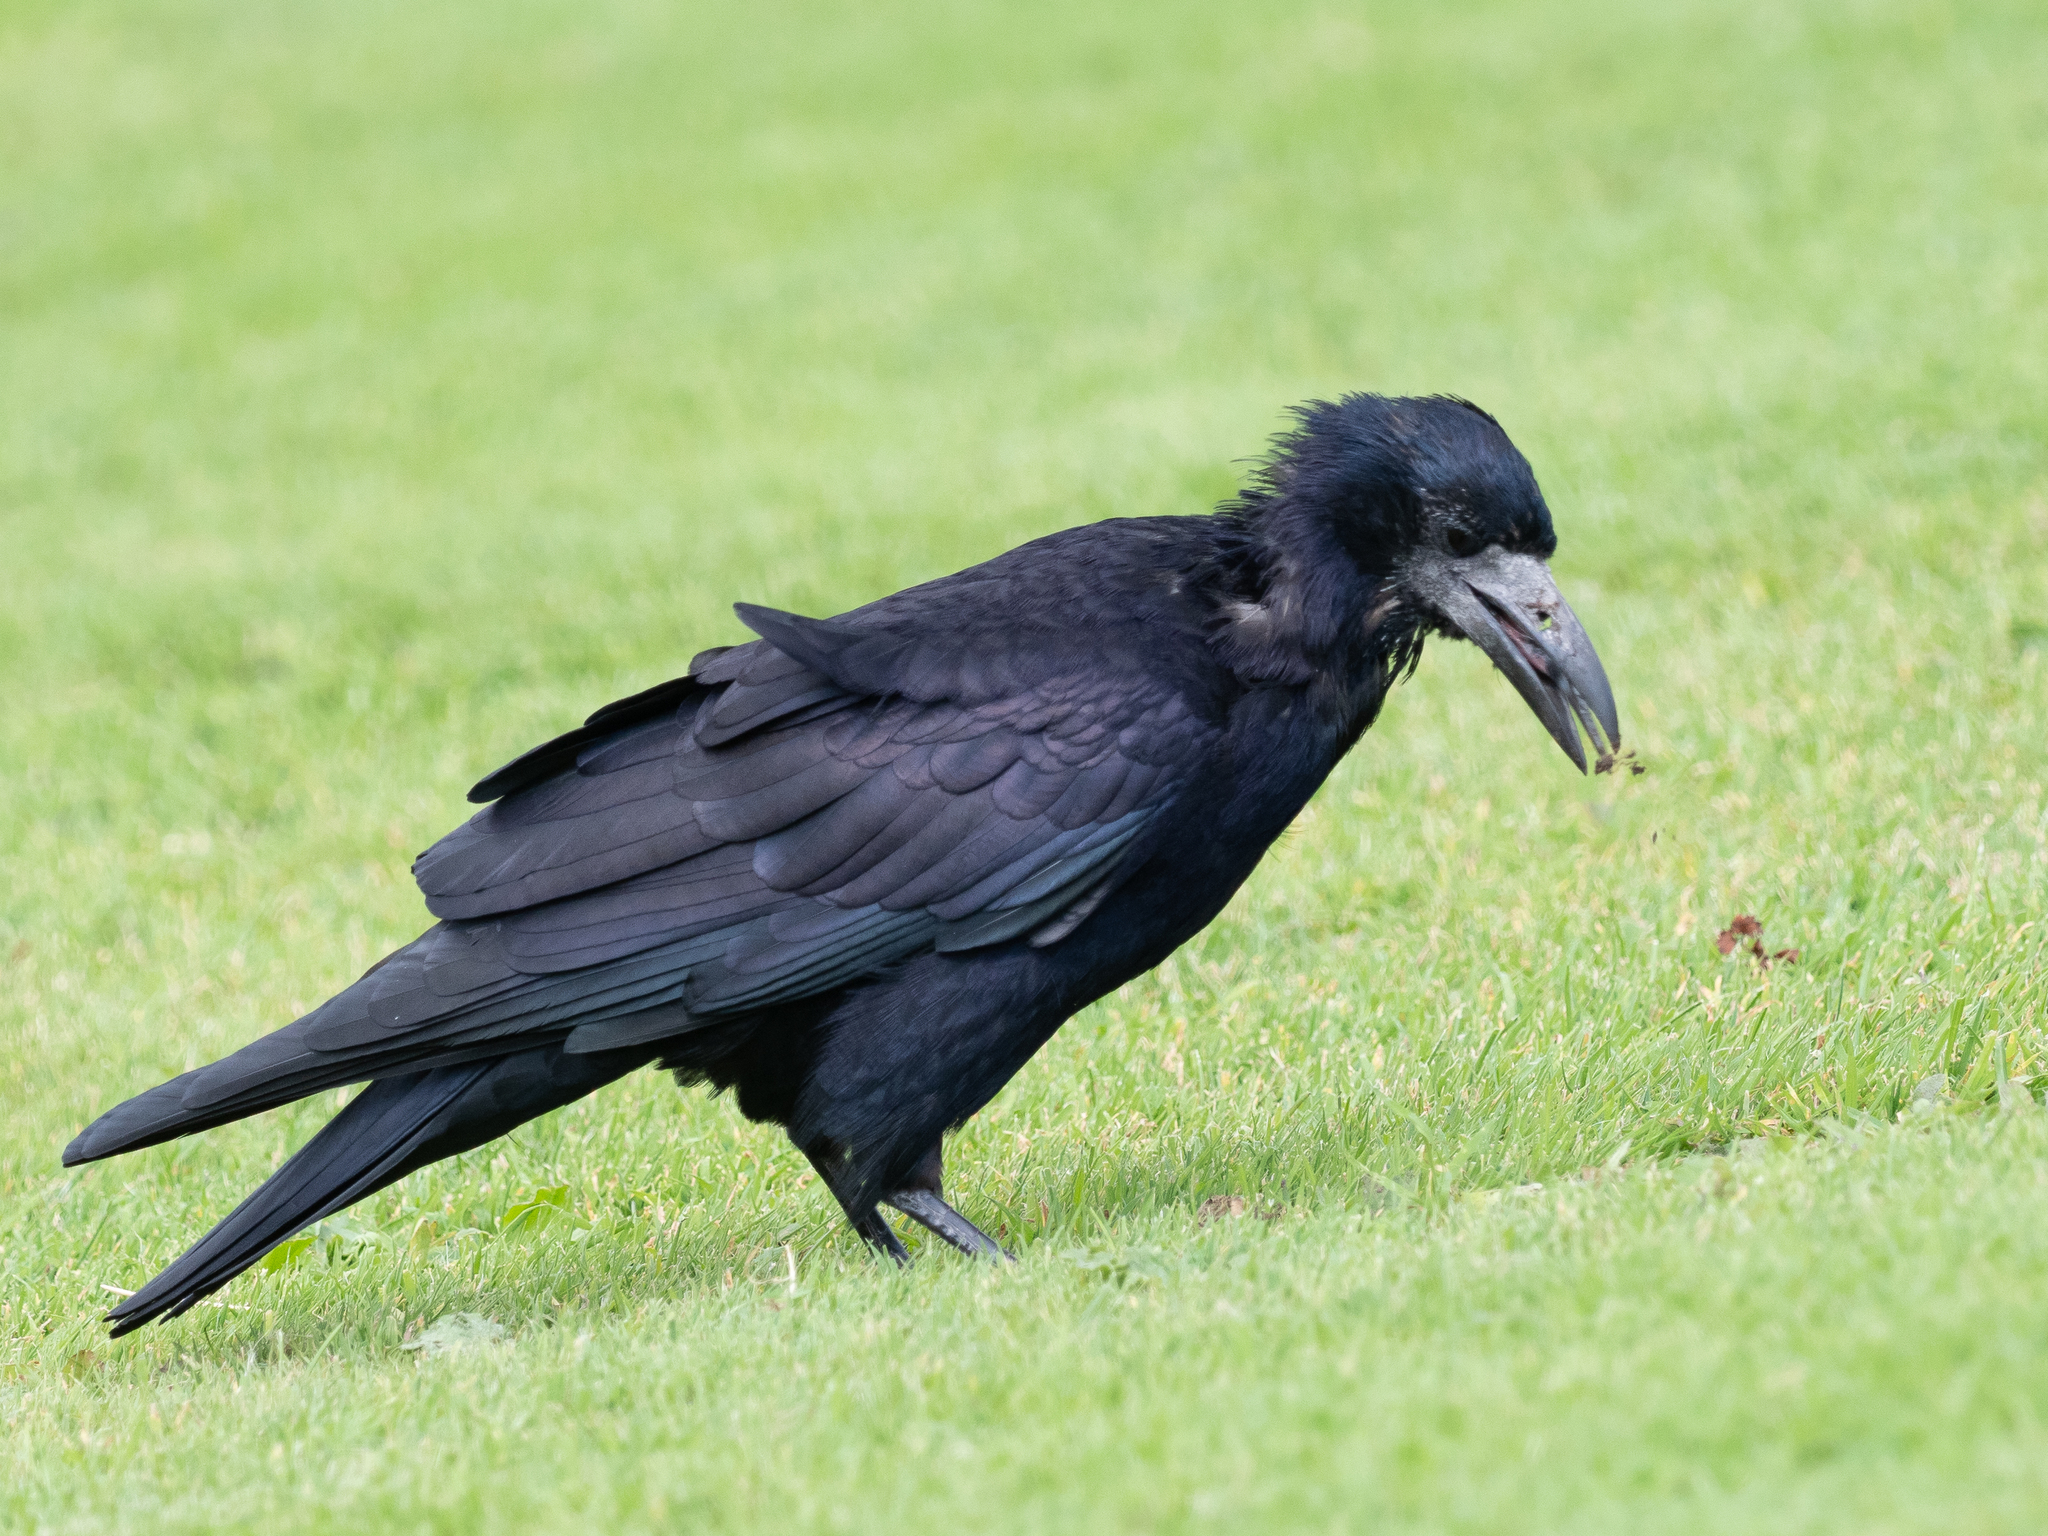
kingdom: Animalia
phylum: Chordata
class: Aves
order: Passeriformes
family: Corvidae
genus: Corvus
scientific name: Corvus frugilegus
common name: Rook
